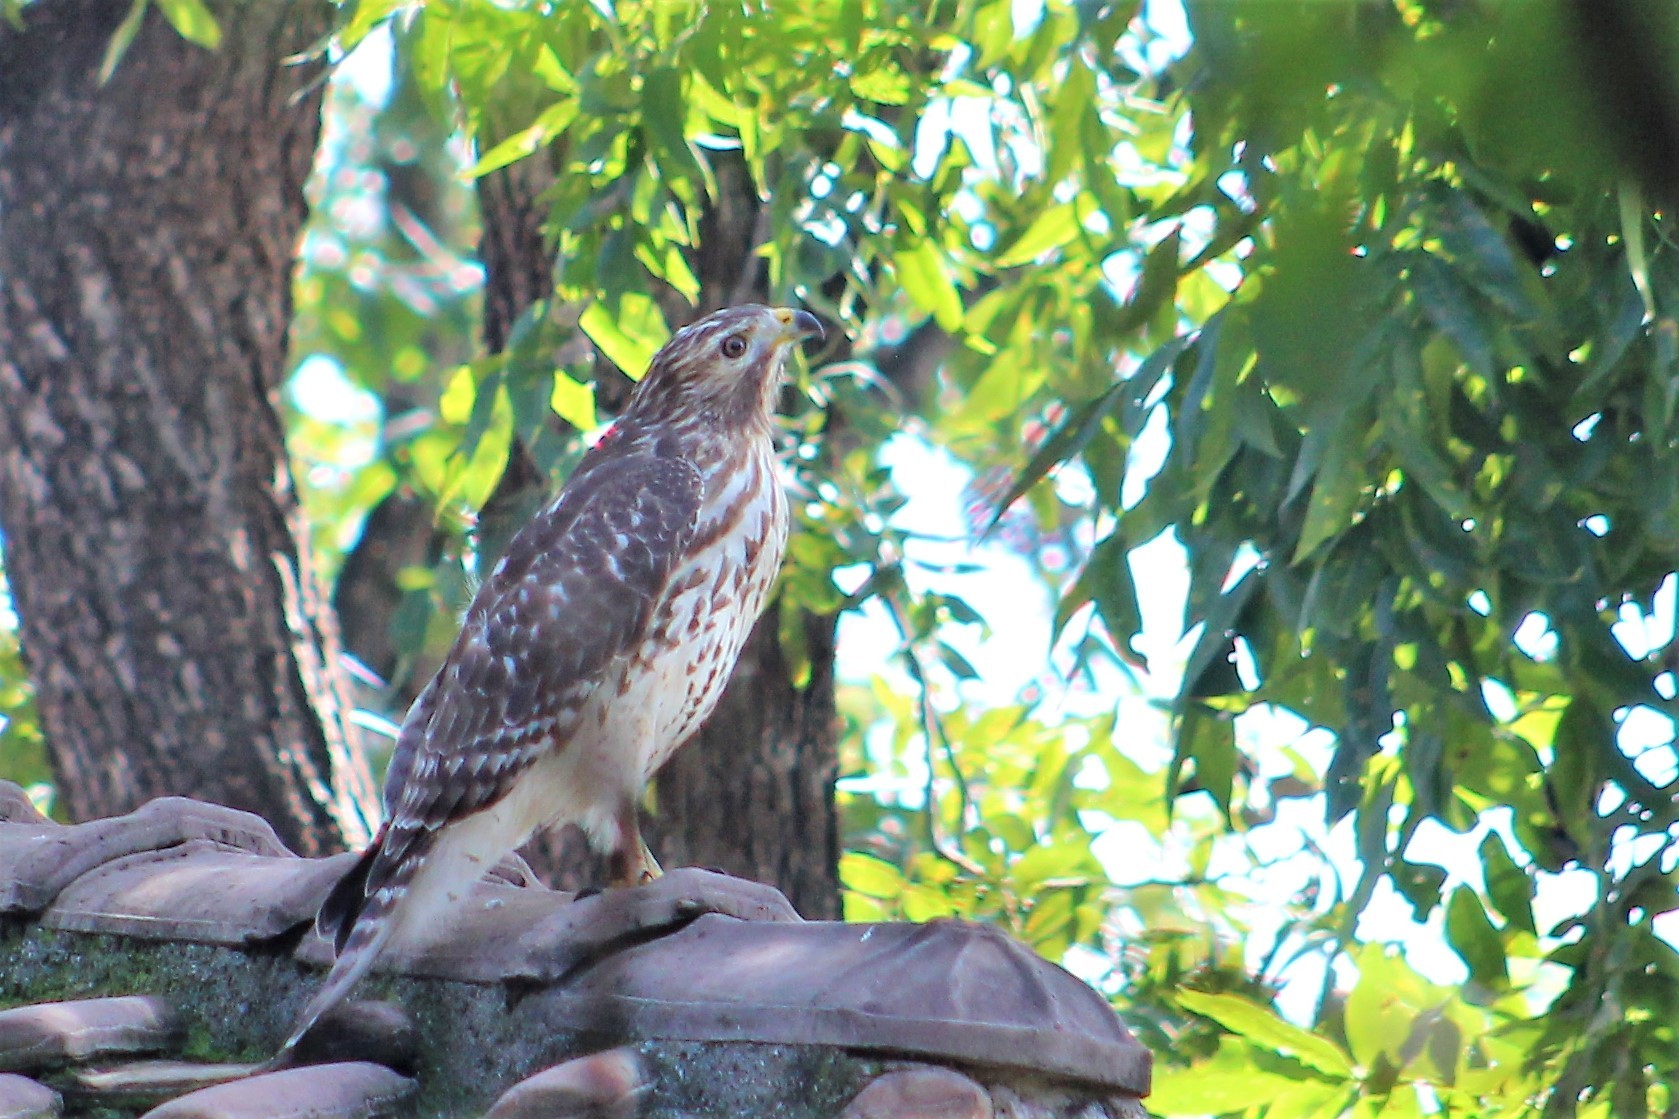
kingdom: Animalia
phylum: Chordata
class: Aves
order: Accipitriformes
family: Accipitridae
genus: Buteo
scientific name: Buteo lineatus
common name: Red-shouldered hawk
